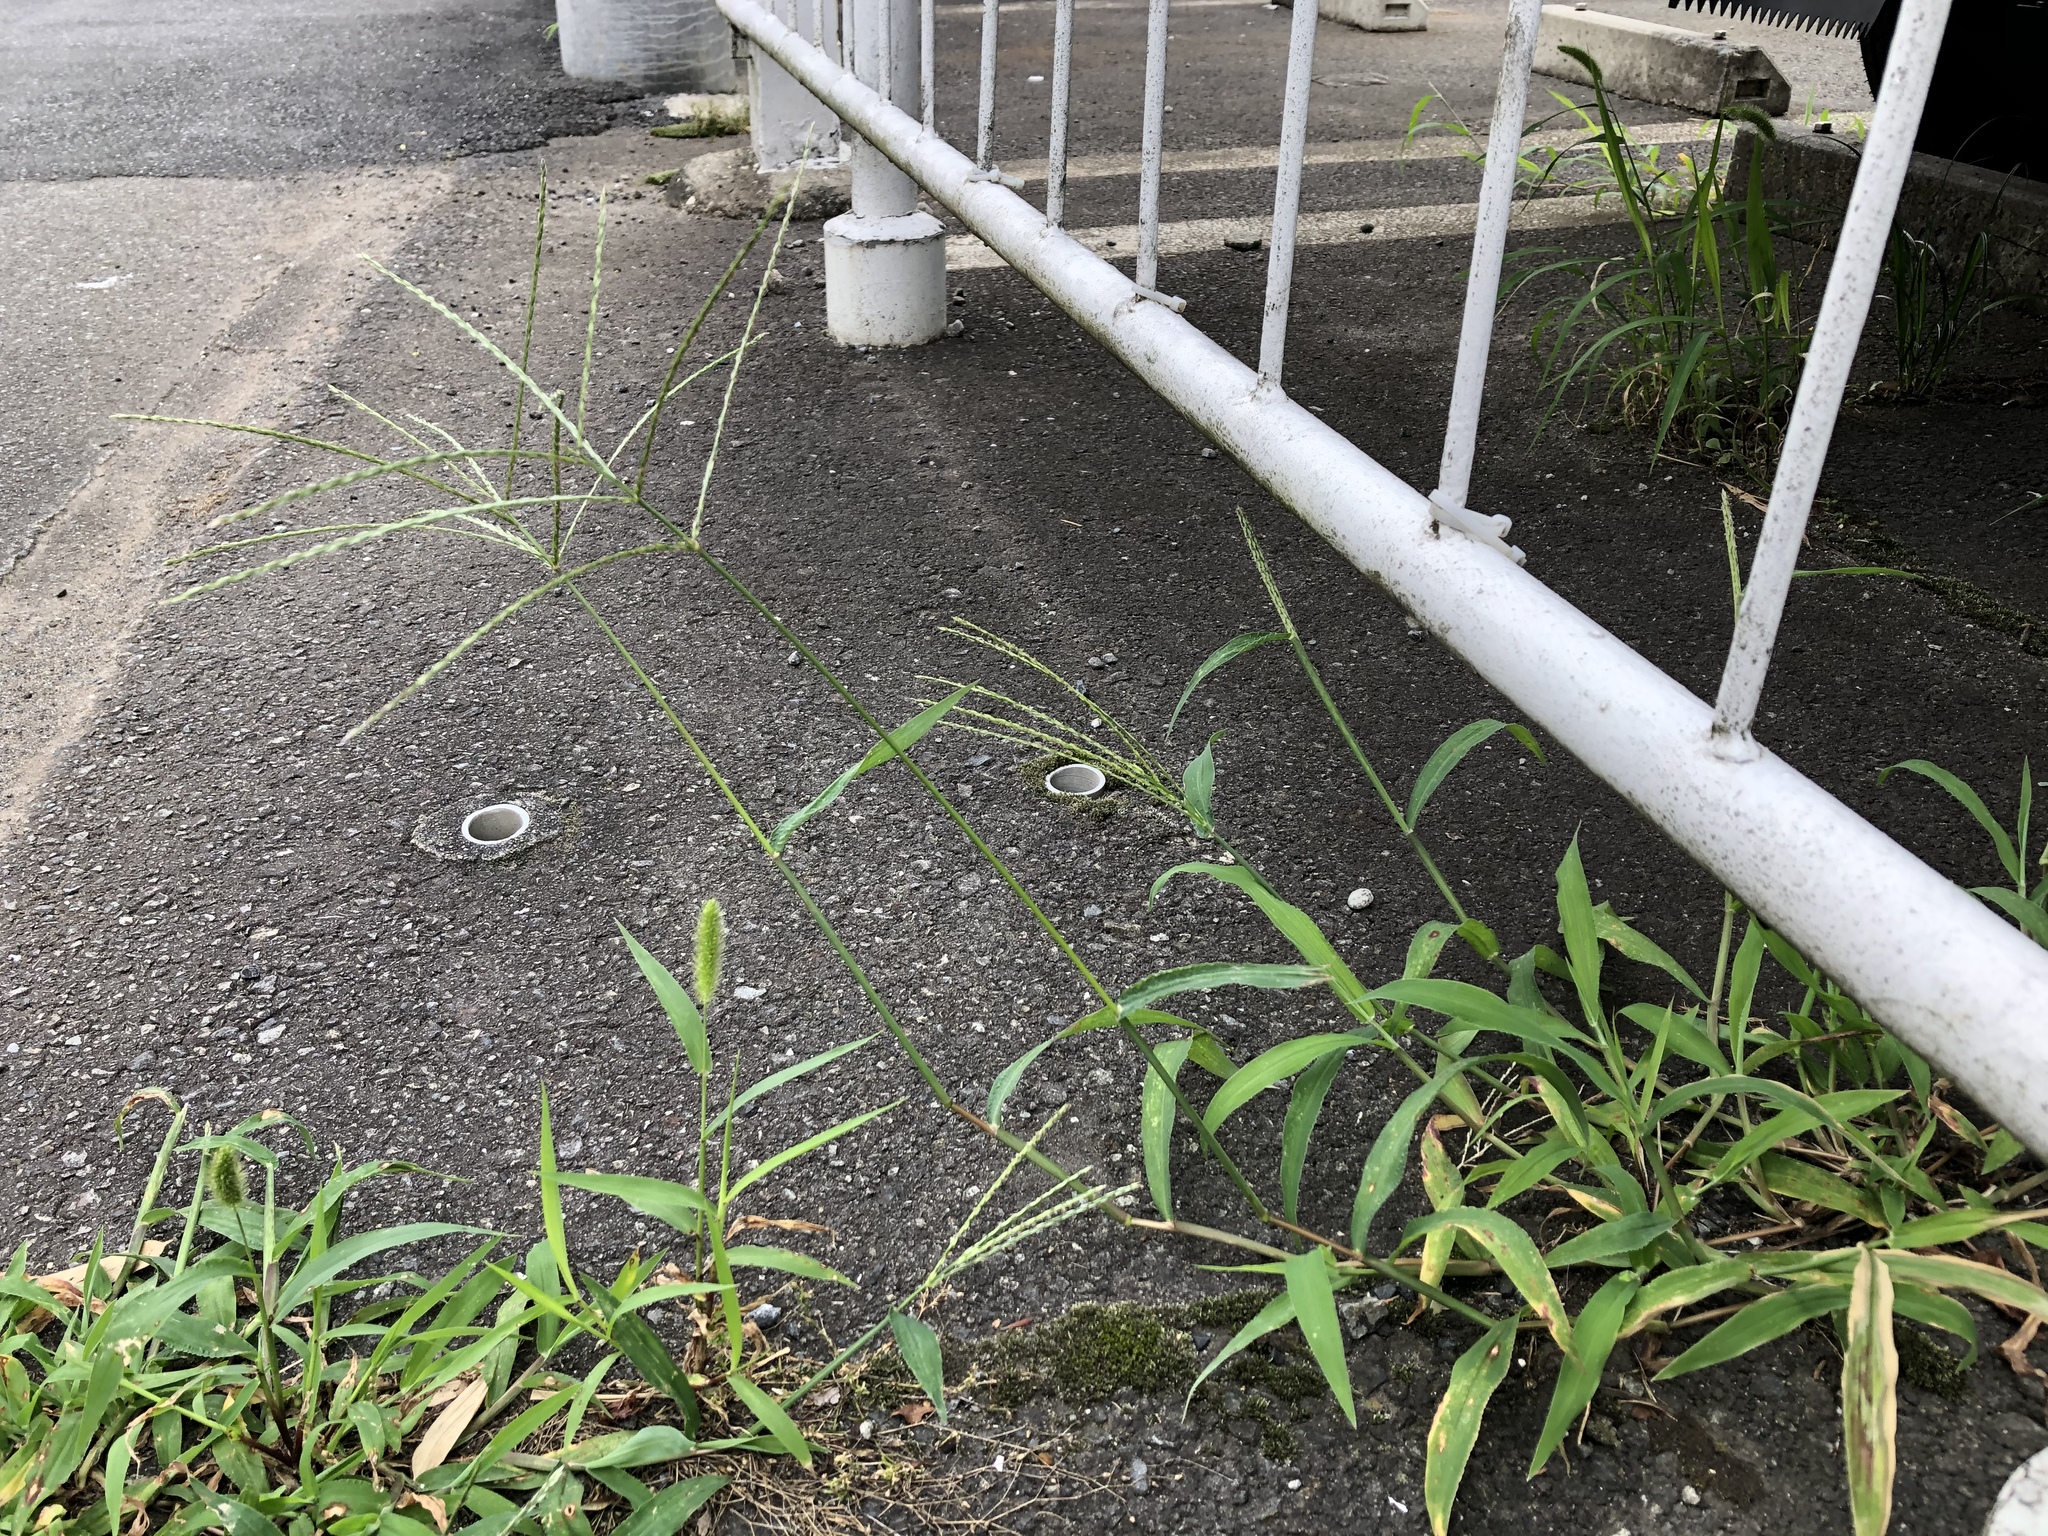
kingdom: Plantae
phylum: Tracheophyta
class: Liliopsida
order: Poales
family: Poaceae
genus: Digitaria
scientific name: Digitaria ciliaris
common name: Tropical finger-grass
